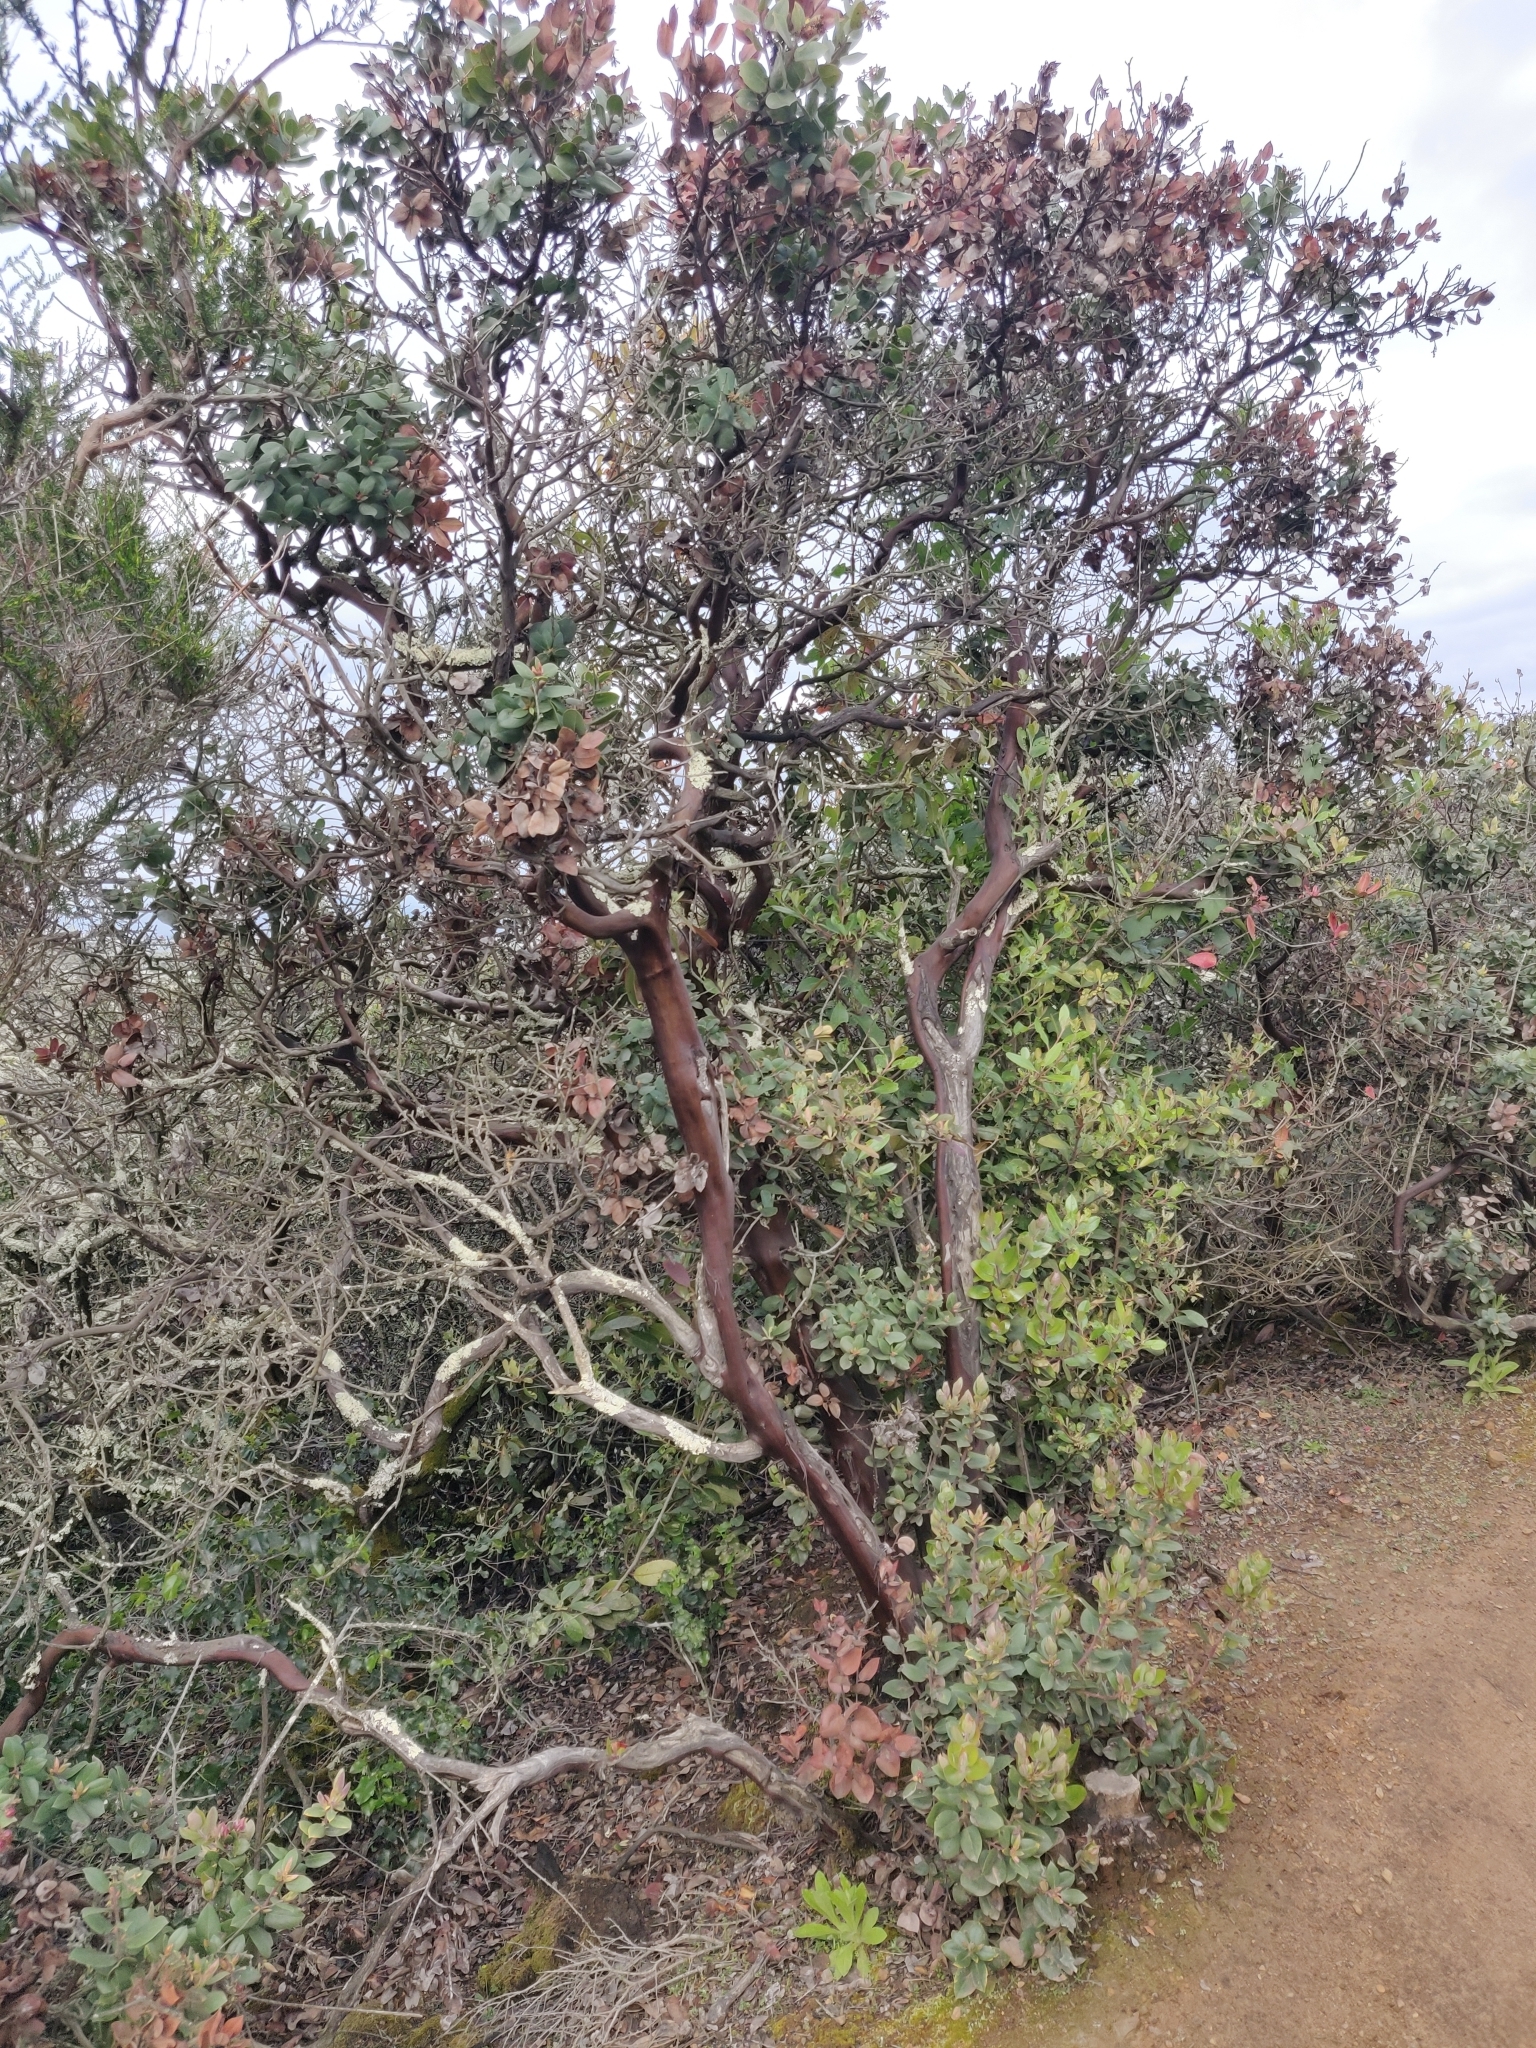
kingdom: Plantae
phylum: Tracheophyta
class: Magnoliopsida
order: Ericales
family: Ericaceae
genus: Arctostaphylos
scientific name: Arctostaphylos crustacea
